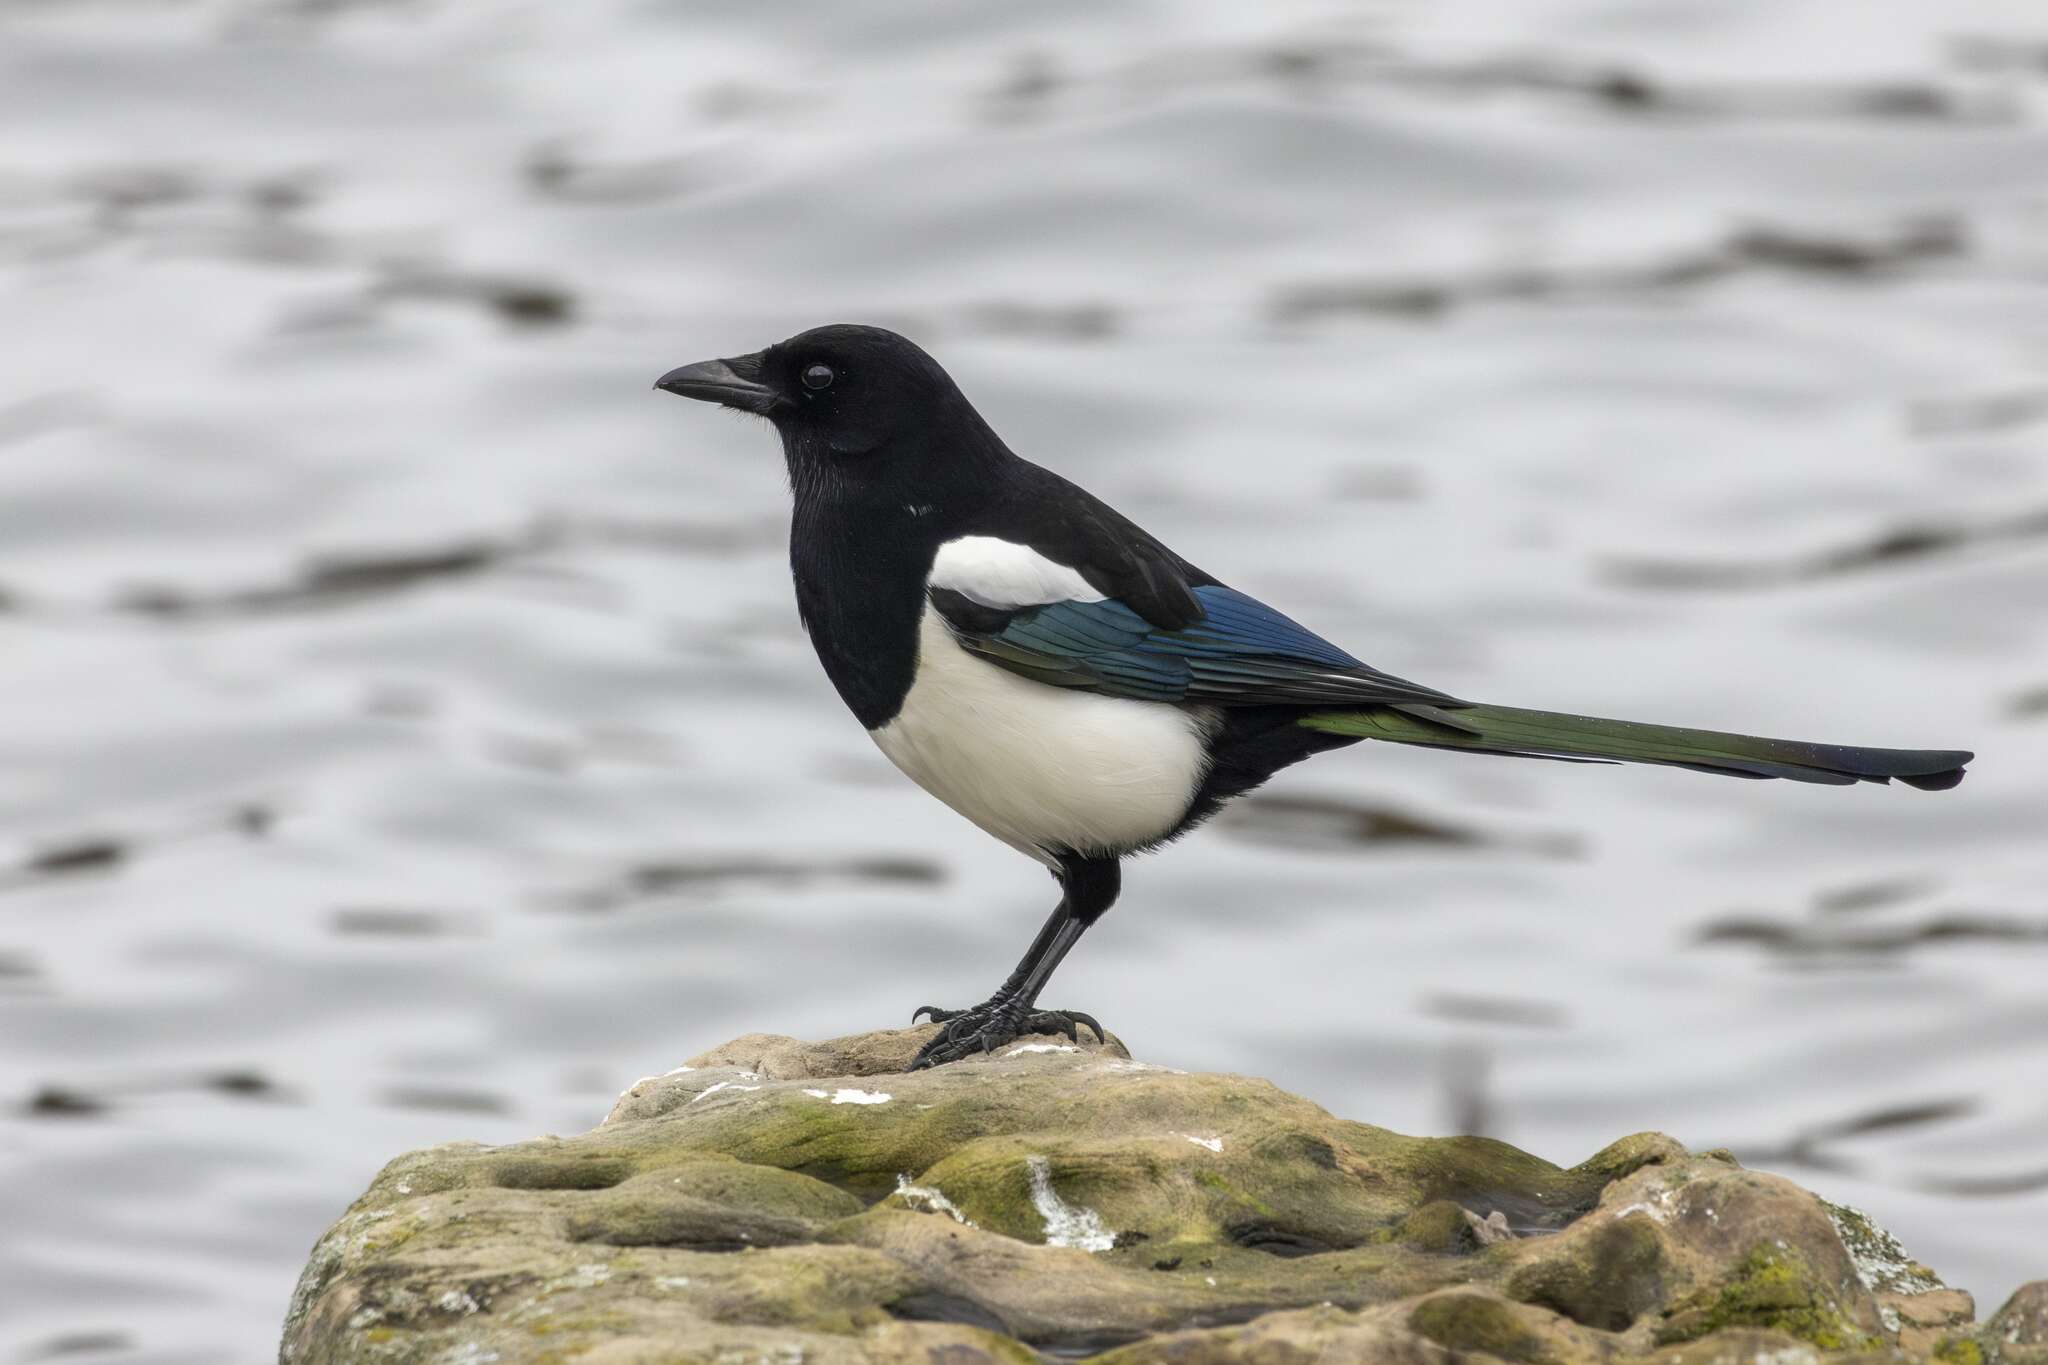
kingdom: Animalia
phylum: Chordata
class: Aves
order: Passeriformes
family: Corvidae
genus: Pica
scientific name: Pica pica
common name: Eurasian magpie
